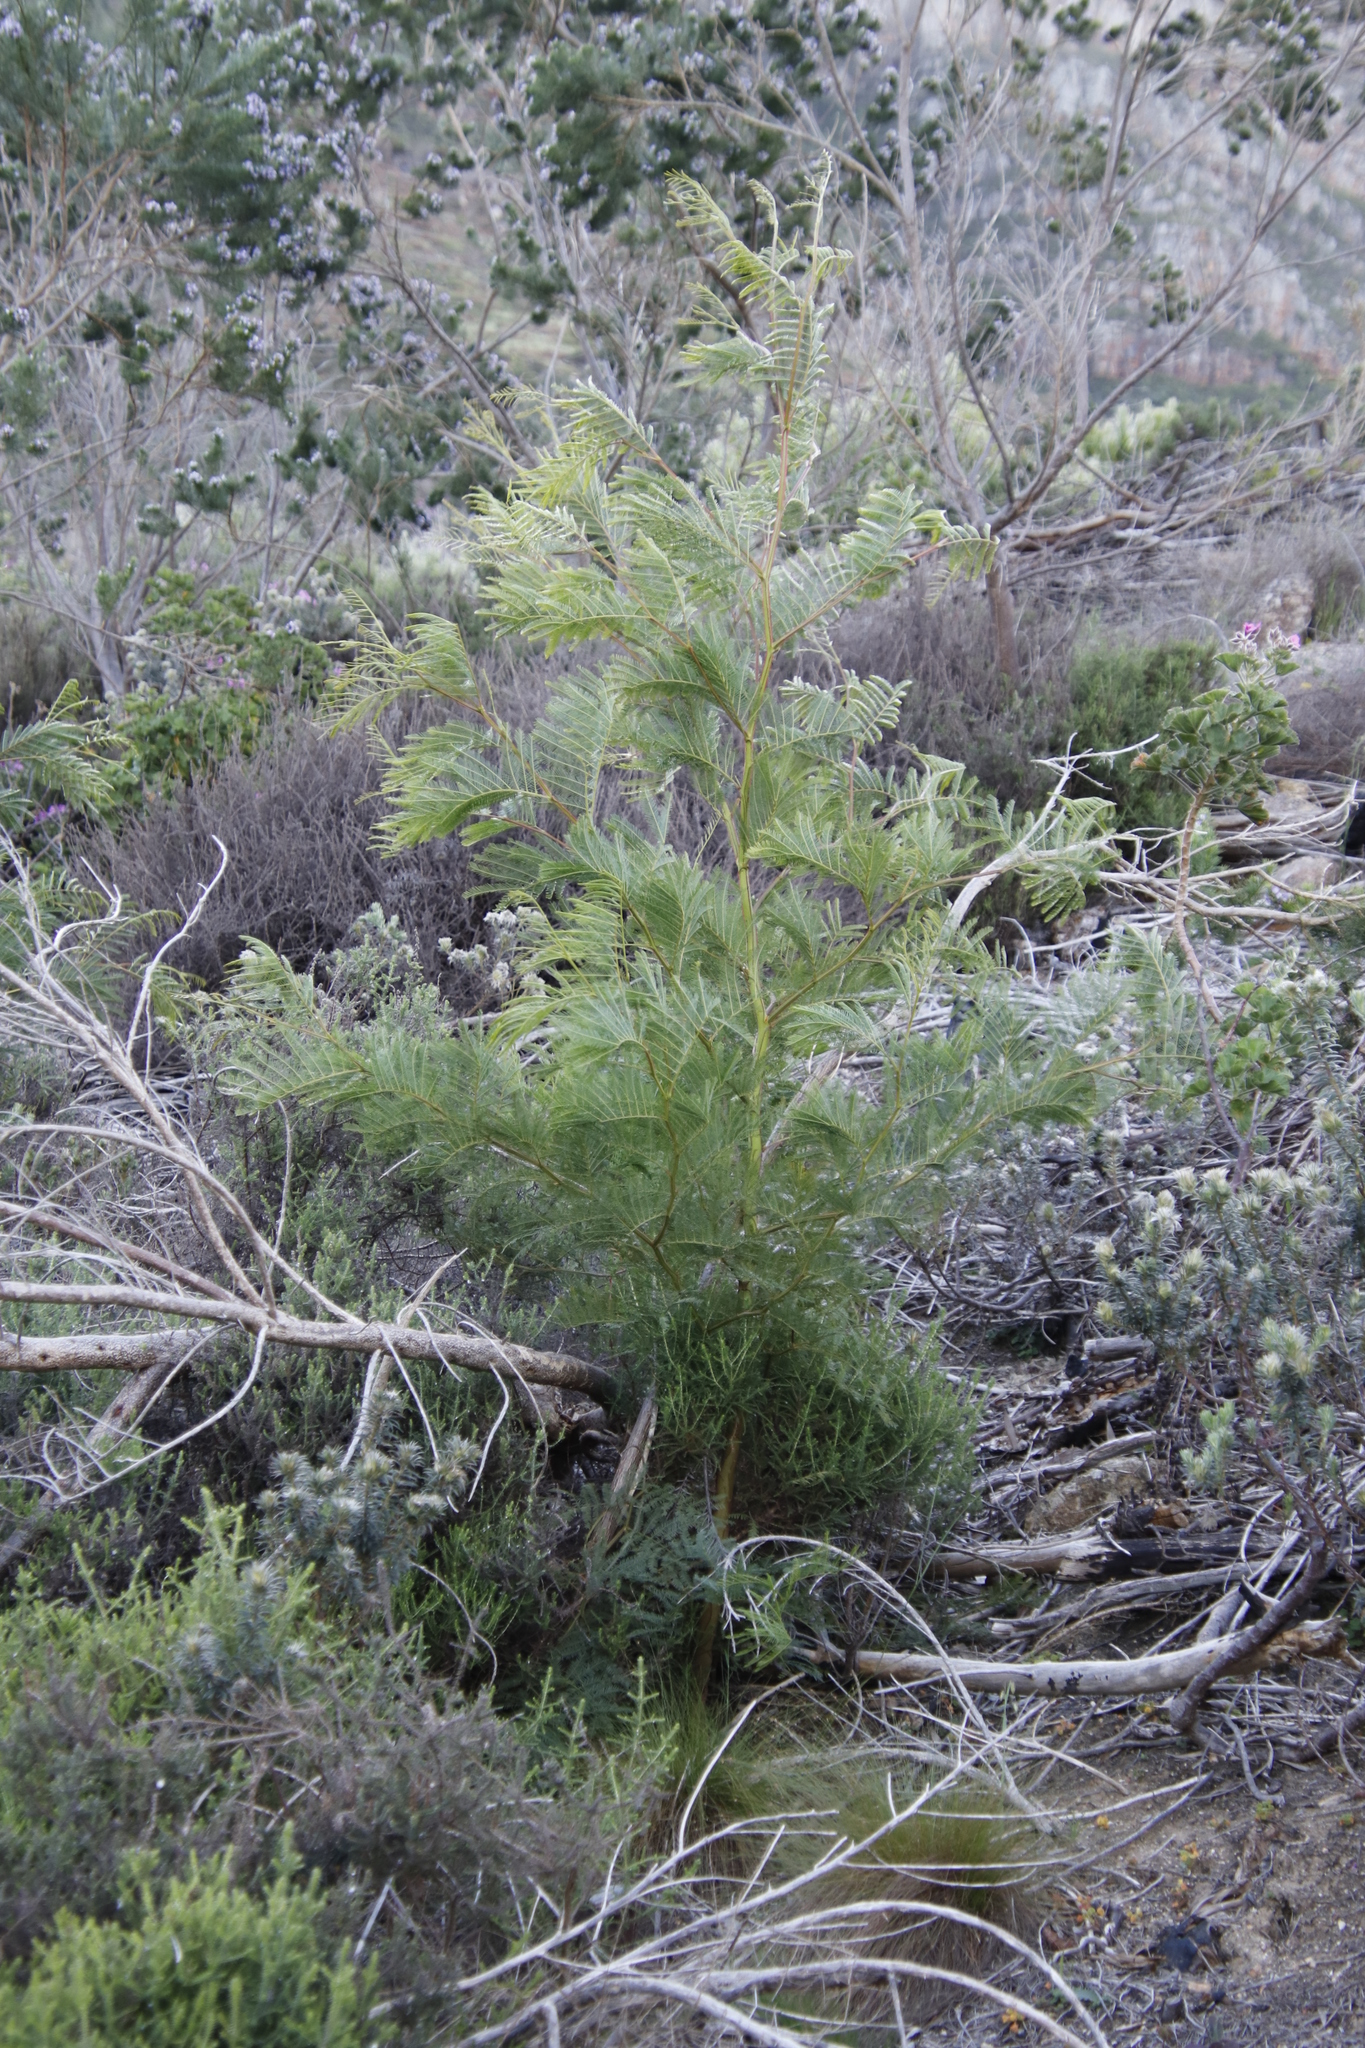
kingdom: Plantae
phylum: Tracheophyta
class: Magnoliopsida
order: Fabales
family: Fabaceae
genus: Acacia
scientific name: Acacia decurrens
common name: Green wattle
